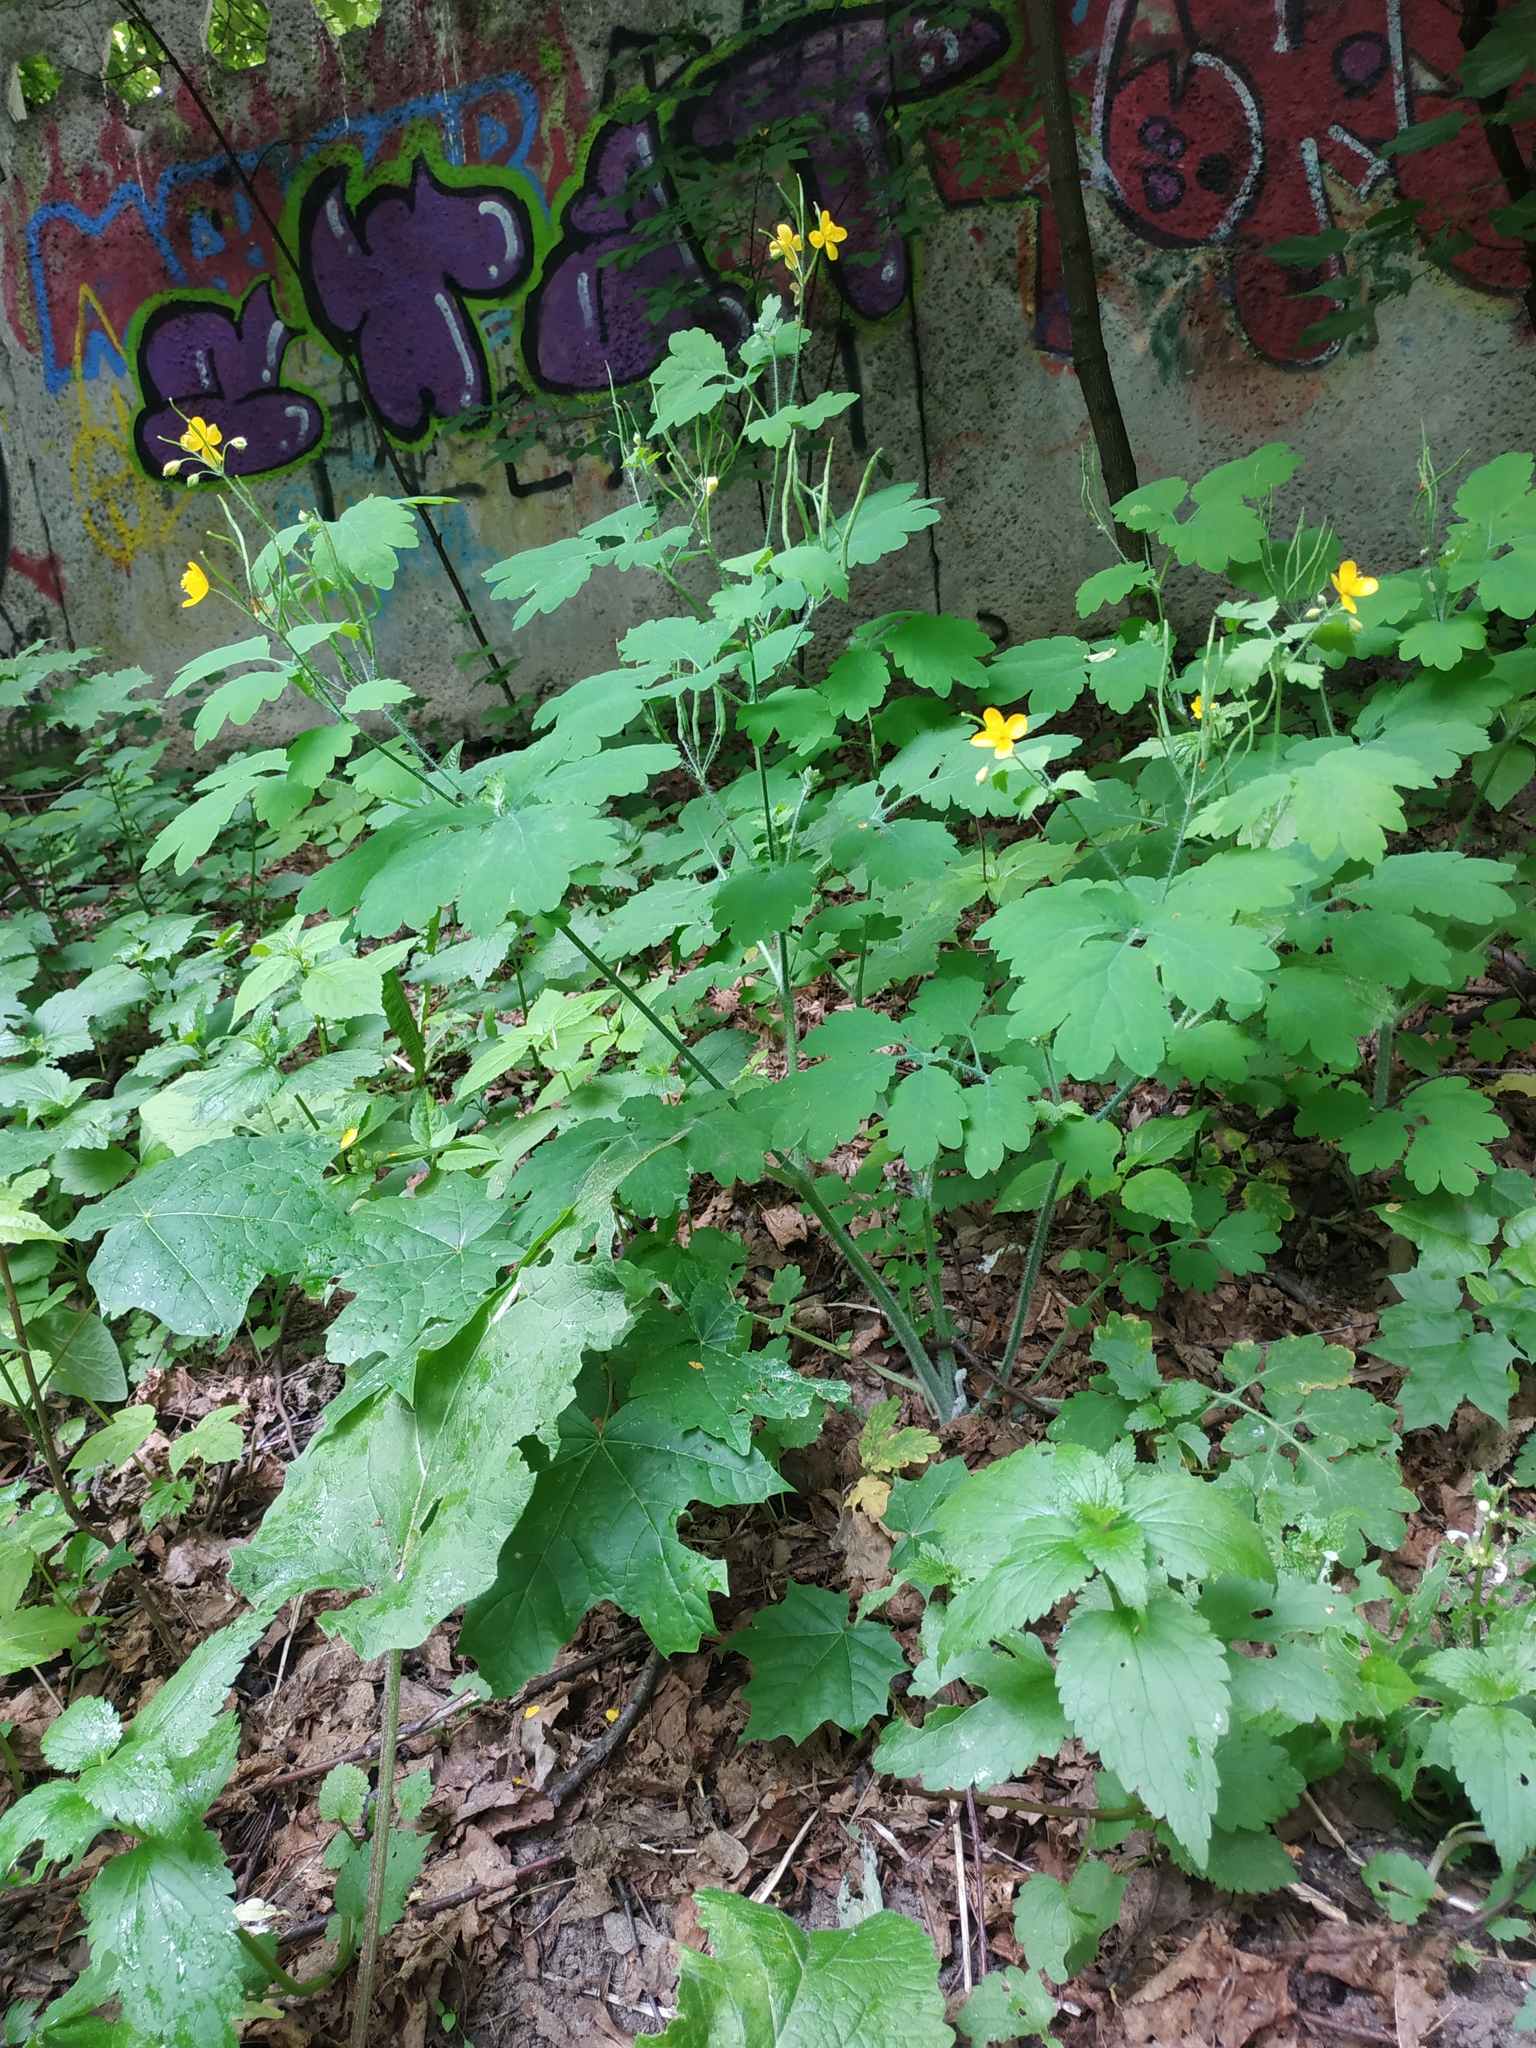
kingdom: Plantae
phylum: Tracheophyta
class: Magnoliopsida
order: Ranunculales
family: Papaveraceae
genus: Chelidonium
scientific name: Chelidonium majus
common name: Greater celandine
